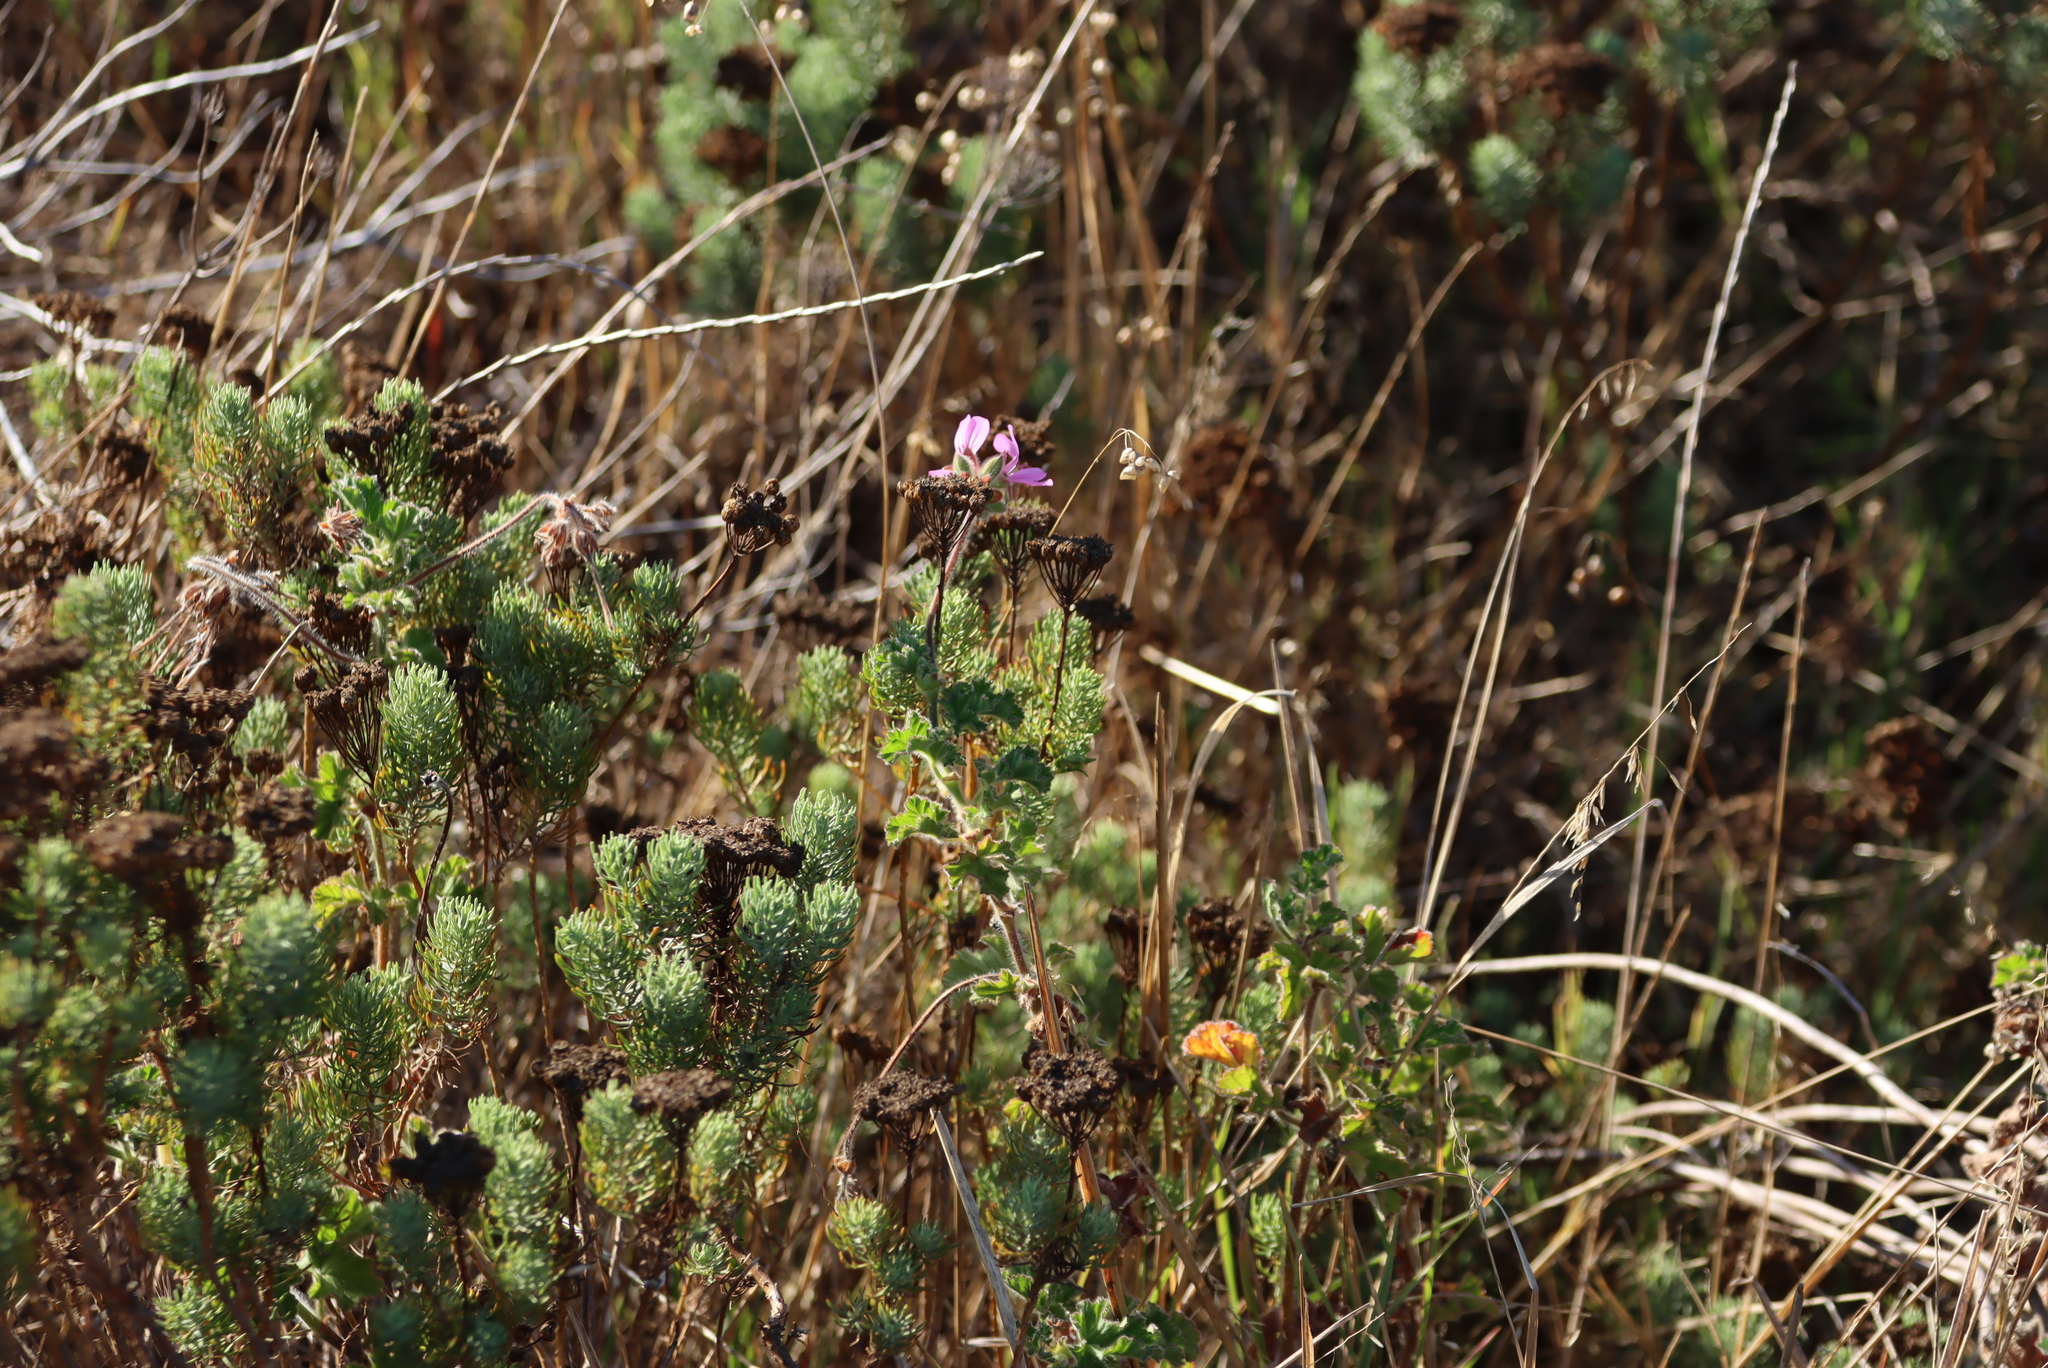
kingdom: Plantae
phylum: Tracheophyta
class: Magnoliopsida
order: Geraniales
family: Geraniaceae
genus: Pelargonium
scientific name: Pelargonium capitatum
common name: Rose scented geranium
